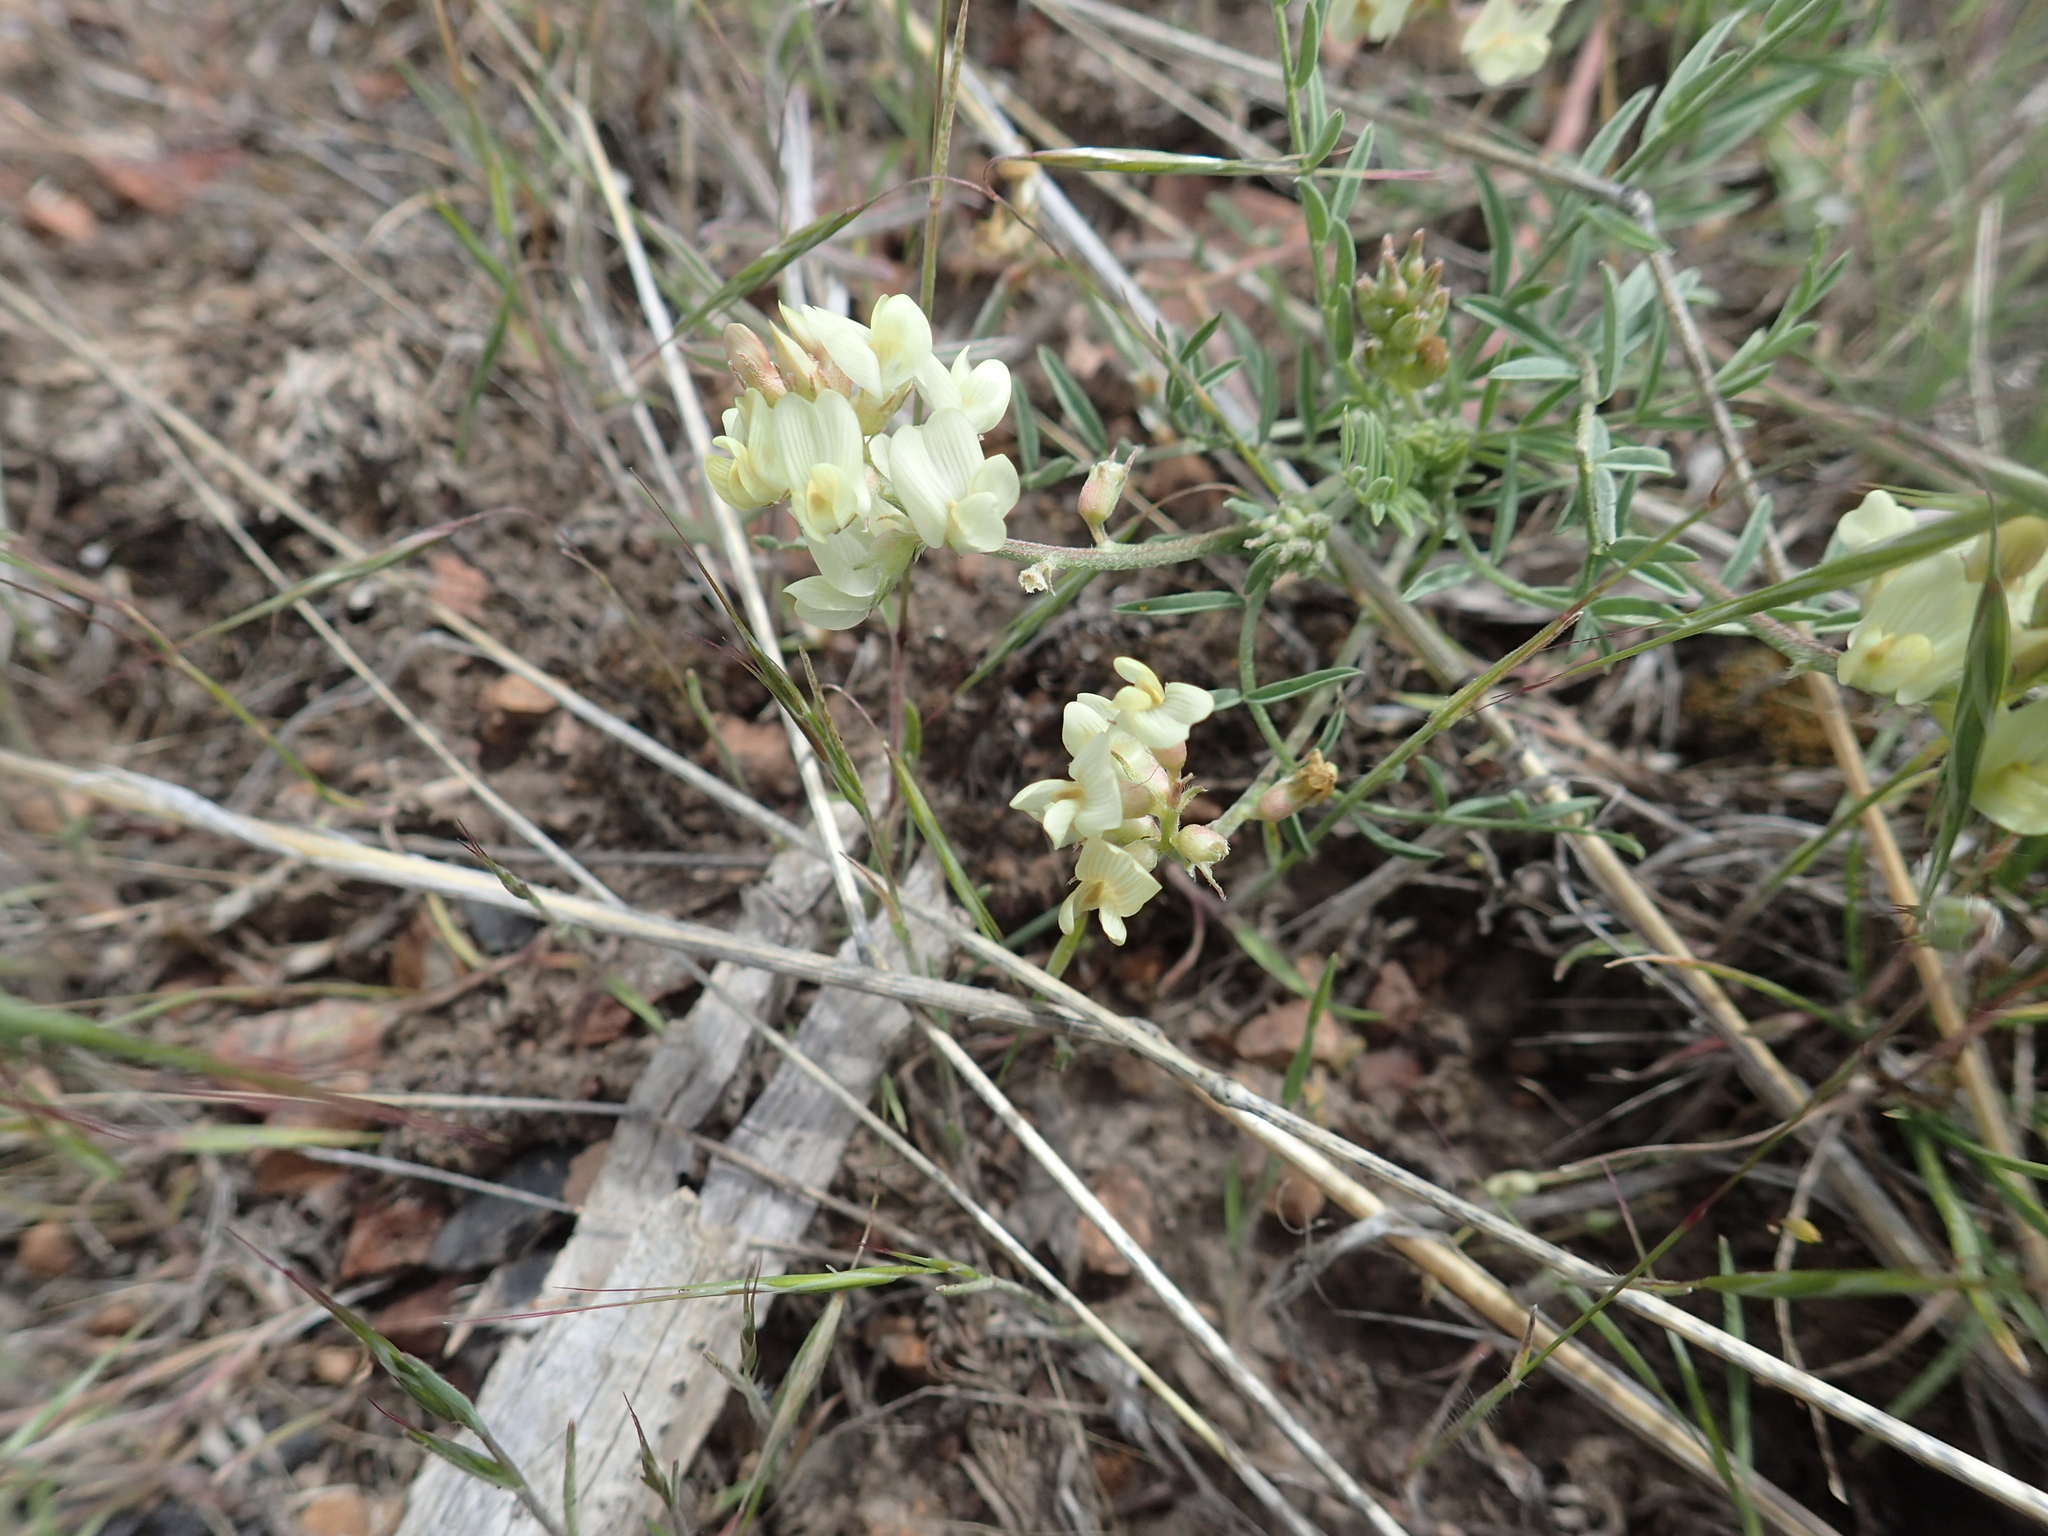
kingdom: Plantae
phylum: Tracheophyta
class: Magnoliopsida
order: Fabales
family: Fabaceae
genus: Astragalus
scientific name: Astragalus obscurus
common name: Arcane milk-vetch
